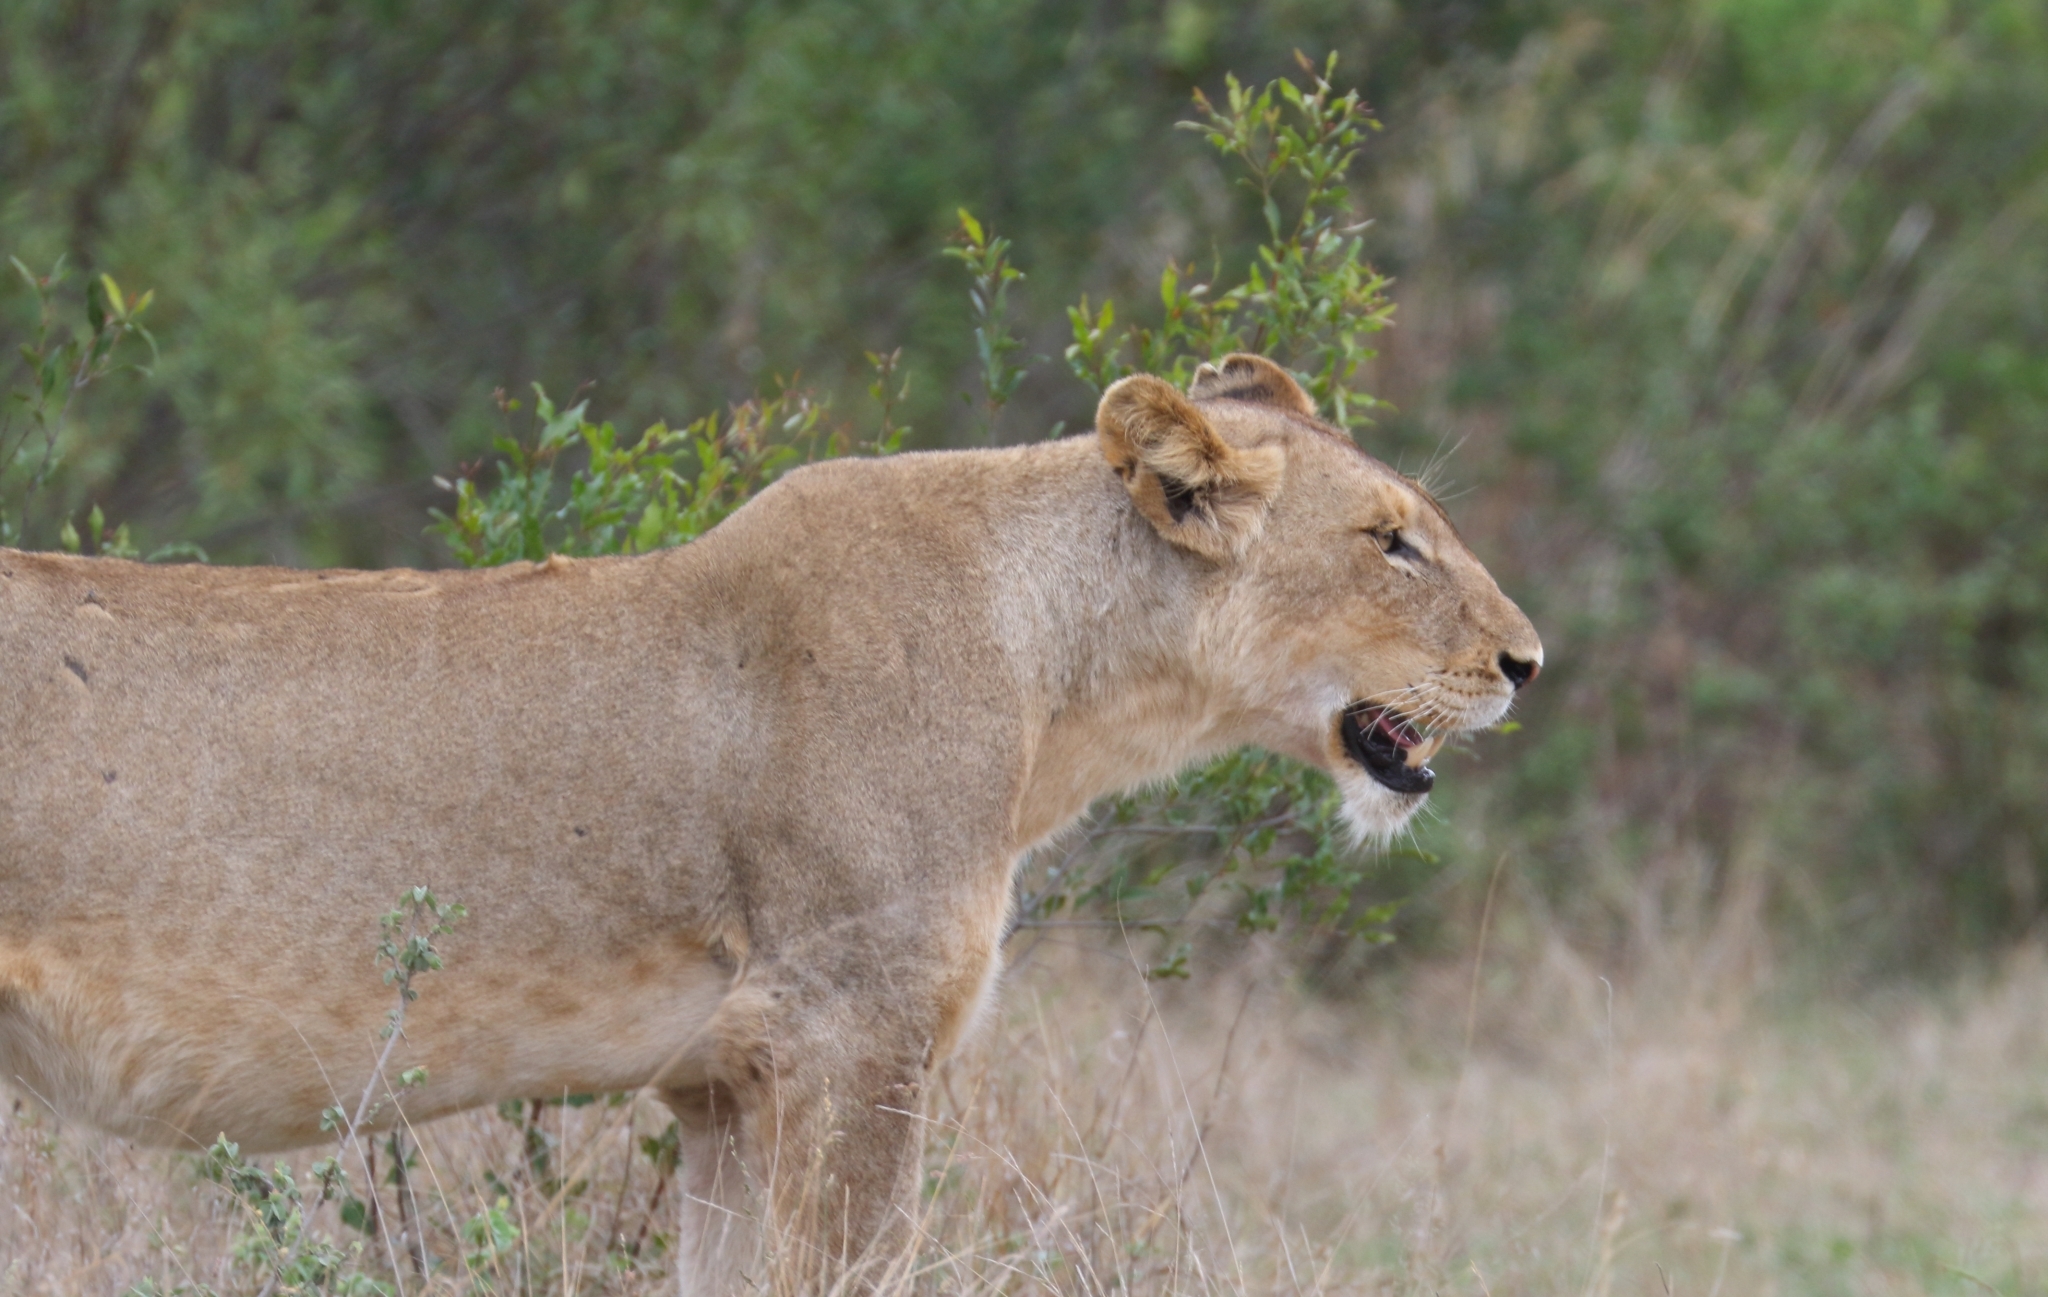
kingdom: Animalia
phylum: Chordata
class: Mammalia
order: Carnivora
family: Felidae
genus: Panthera
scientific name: Panthera leo
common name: Lion
